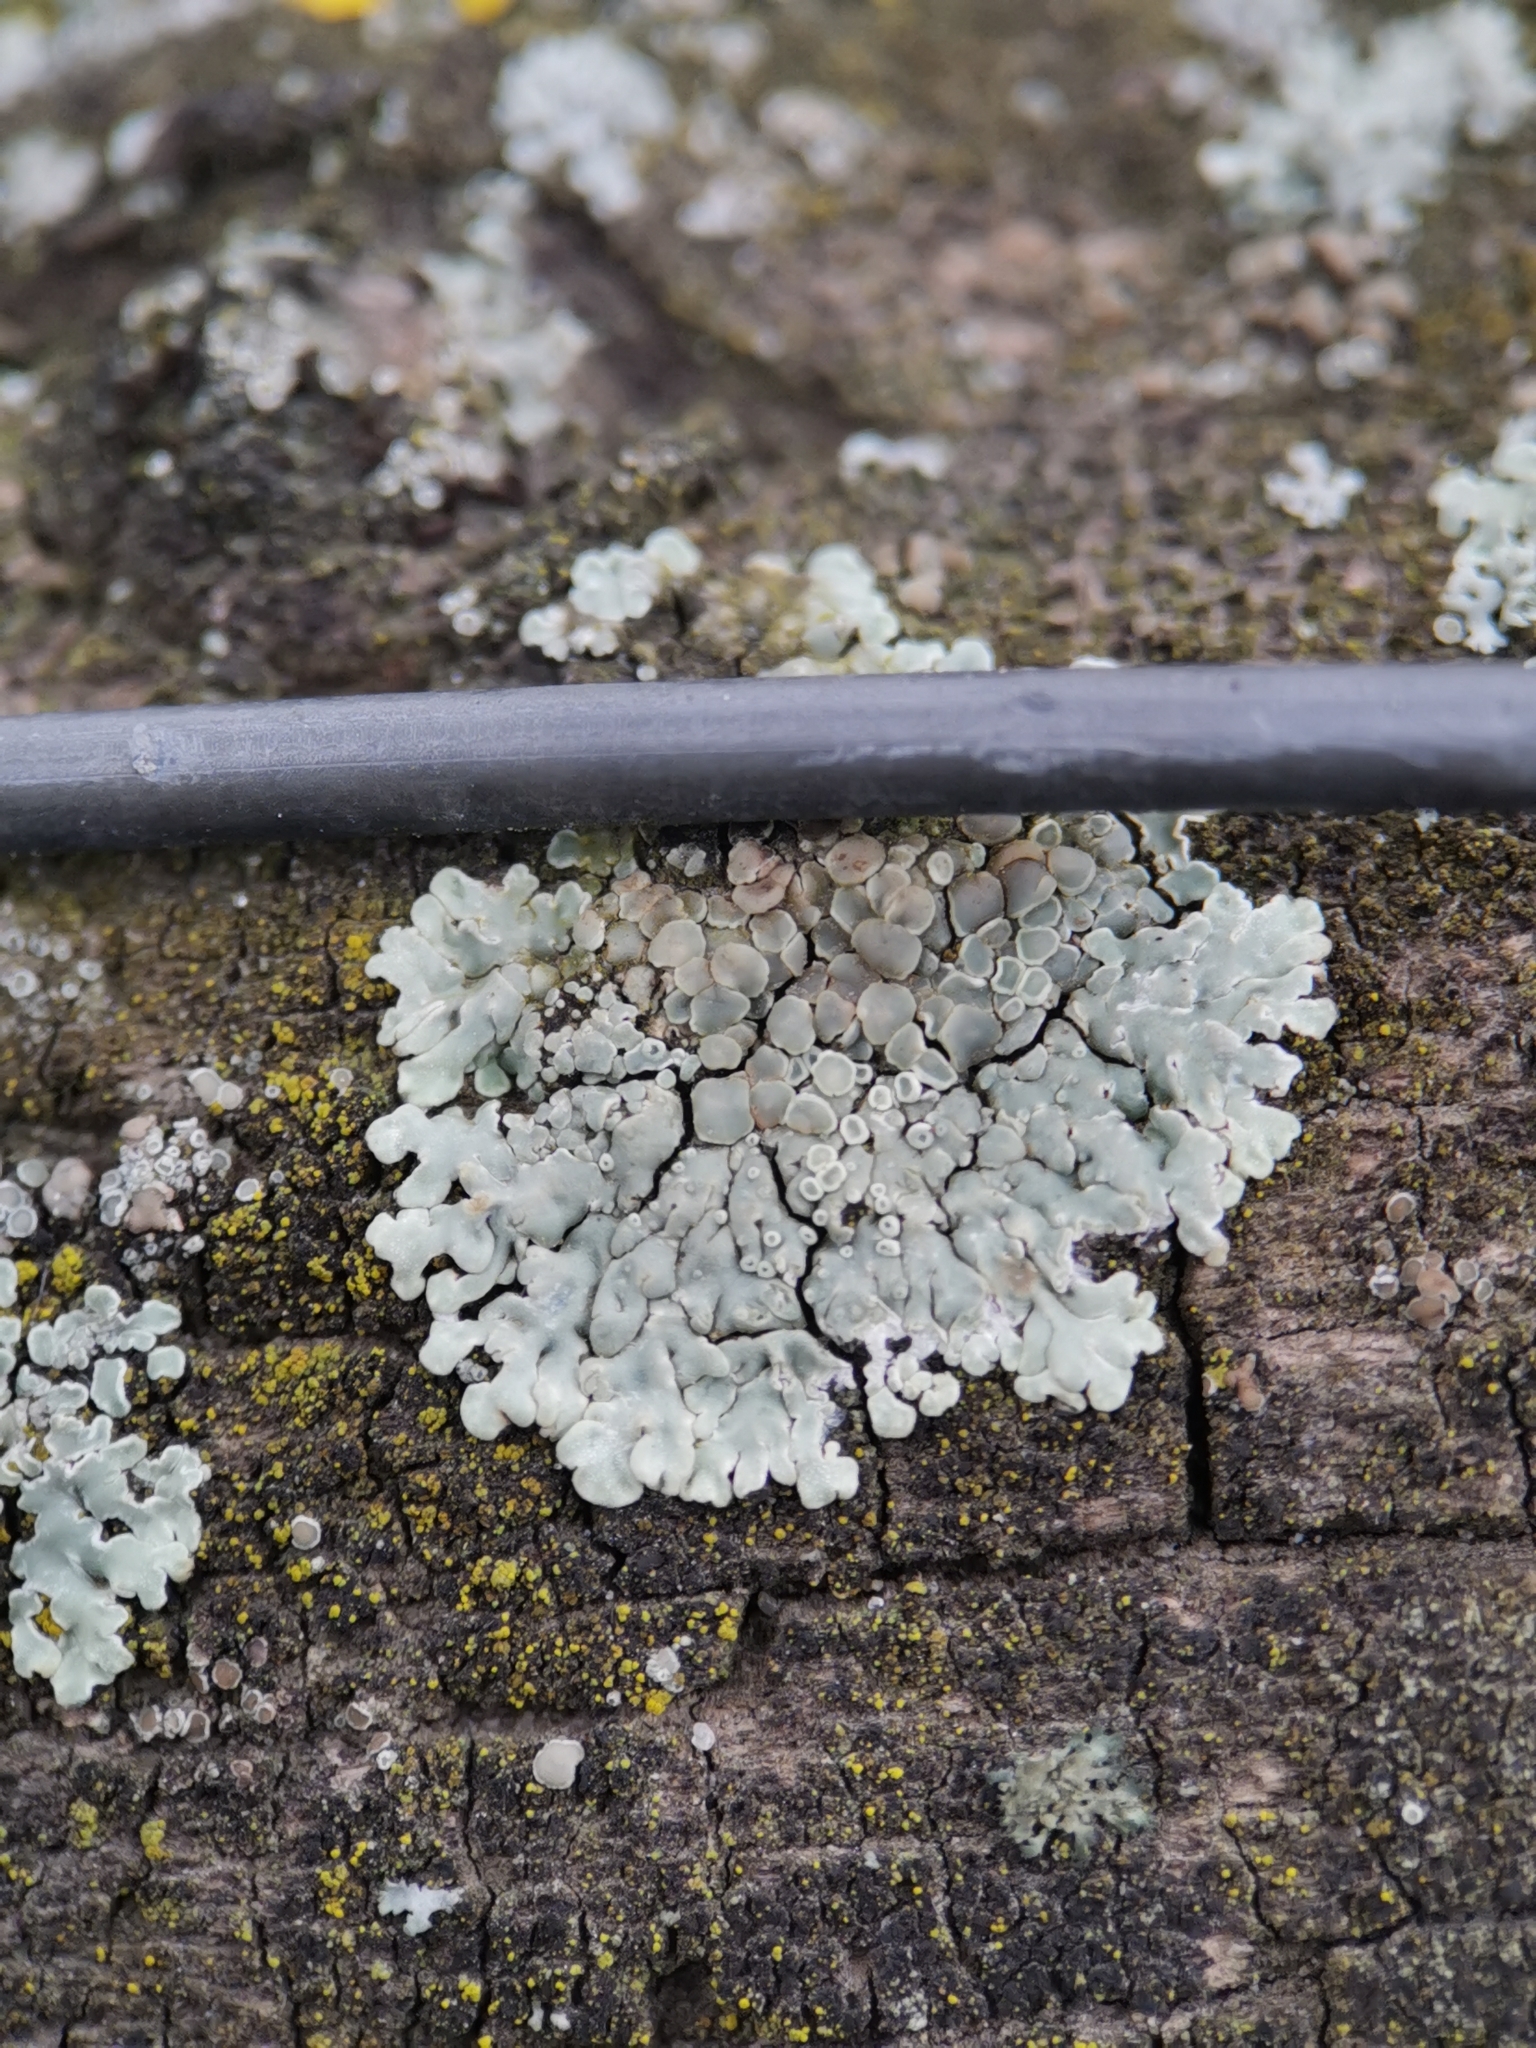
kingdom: Fungi
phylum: Ascomycota
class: Lecanoromycetes
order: Lecanorales
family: Lecanoraceae
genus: Protoparmeliopsis
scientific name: Protoparmeliopsis muralis
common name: Stonewall rim lichen
